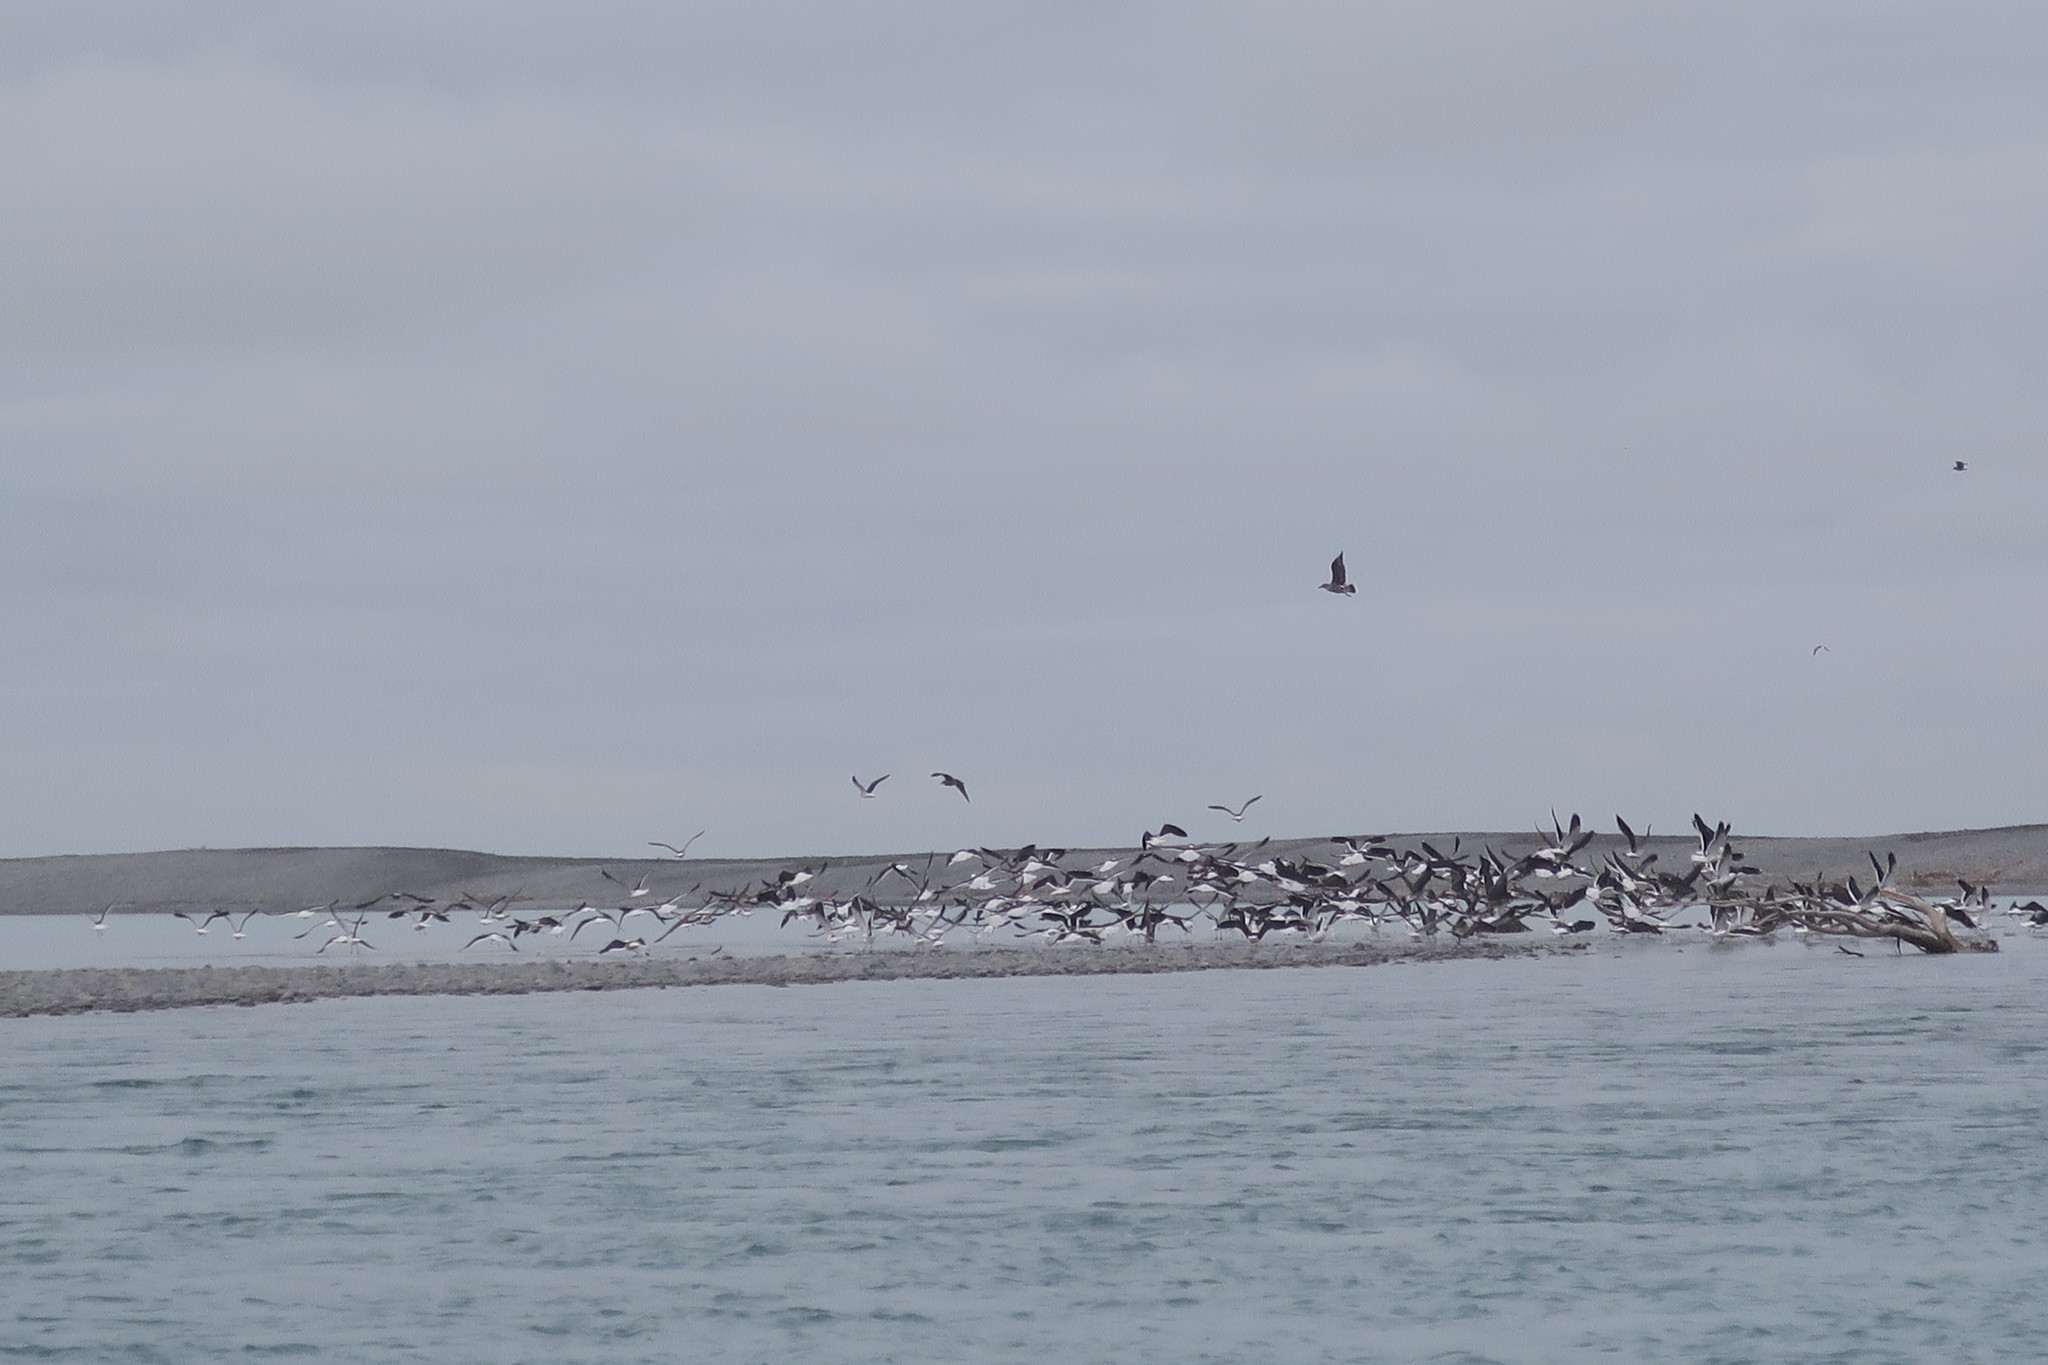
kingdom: Animalia
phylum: Chordata
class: Aves
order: Charadriiformes
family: Laridae
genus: Larus
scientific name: Larus dominicanus
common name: Kelp gull
